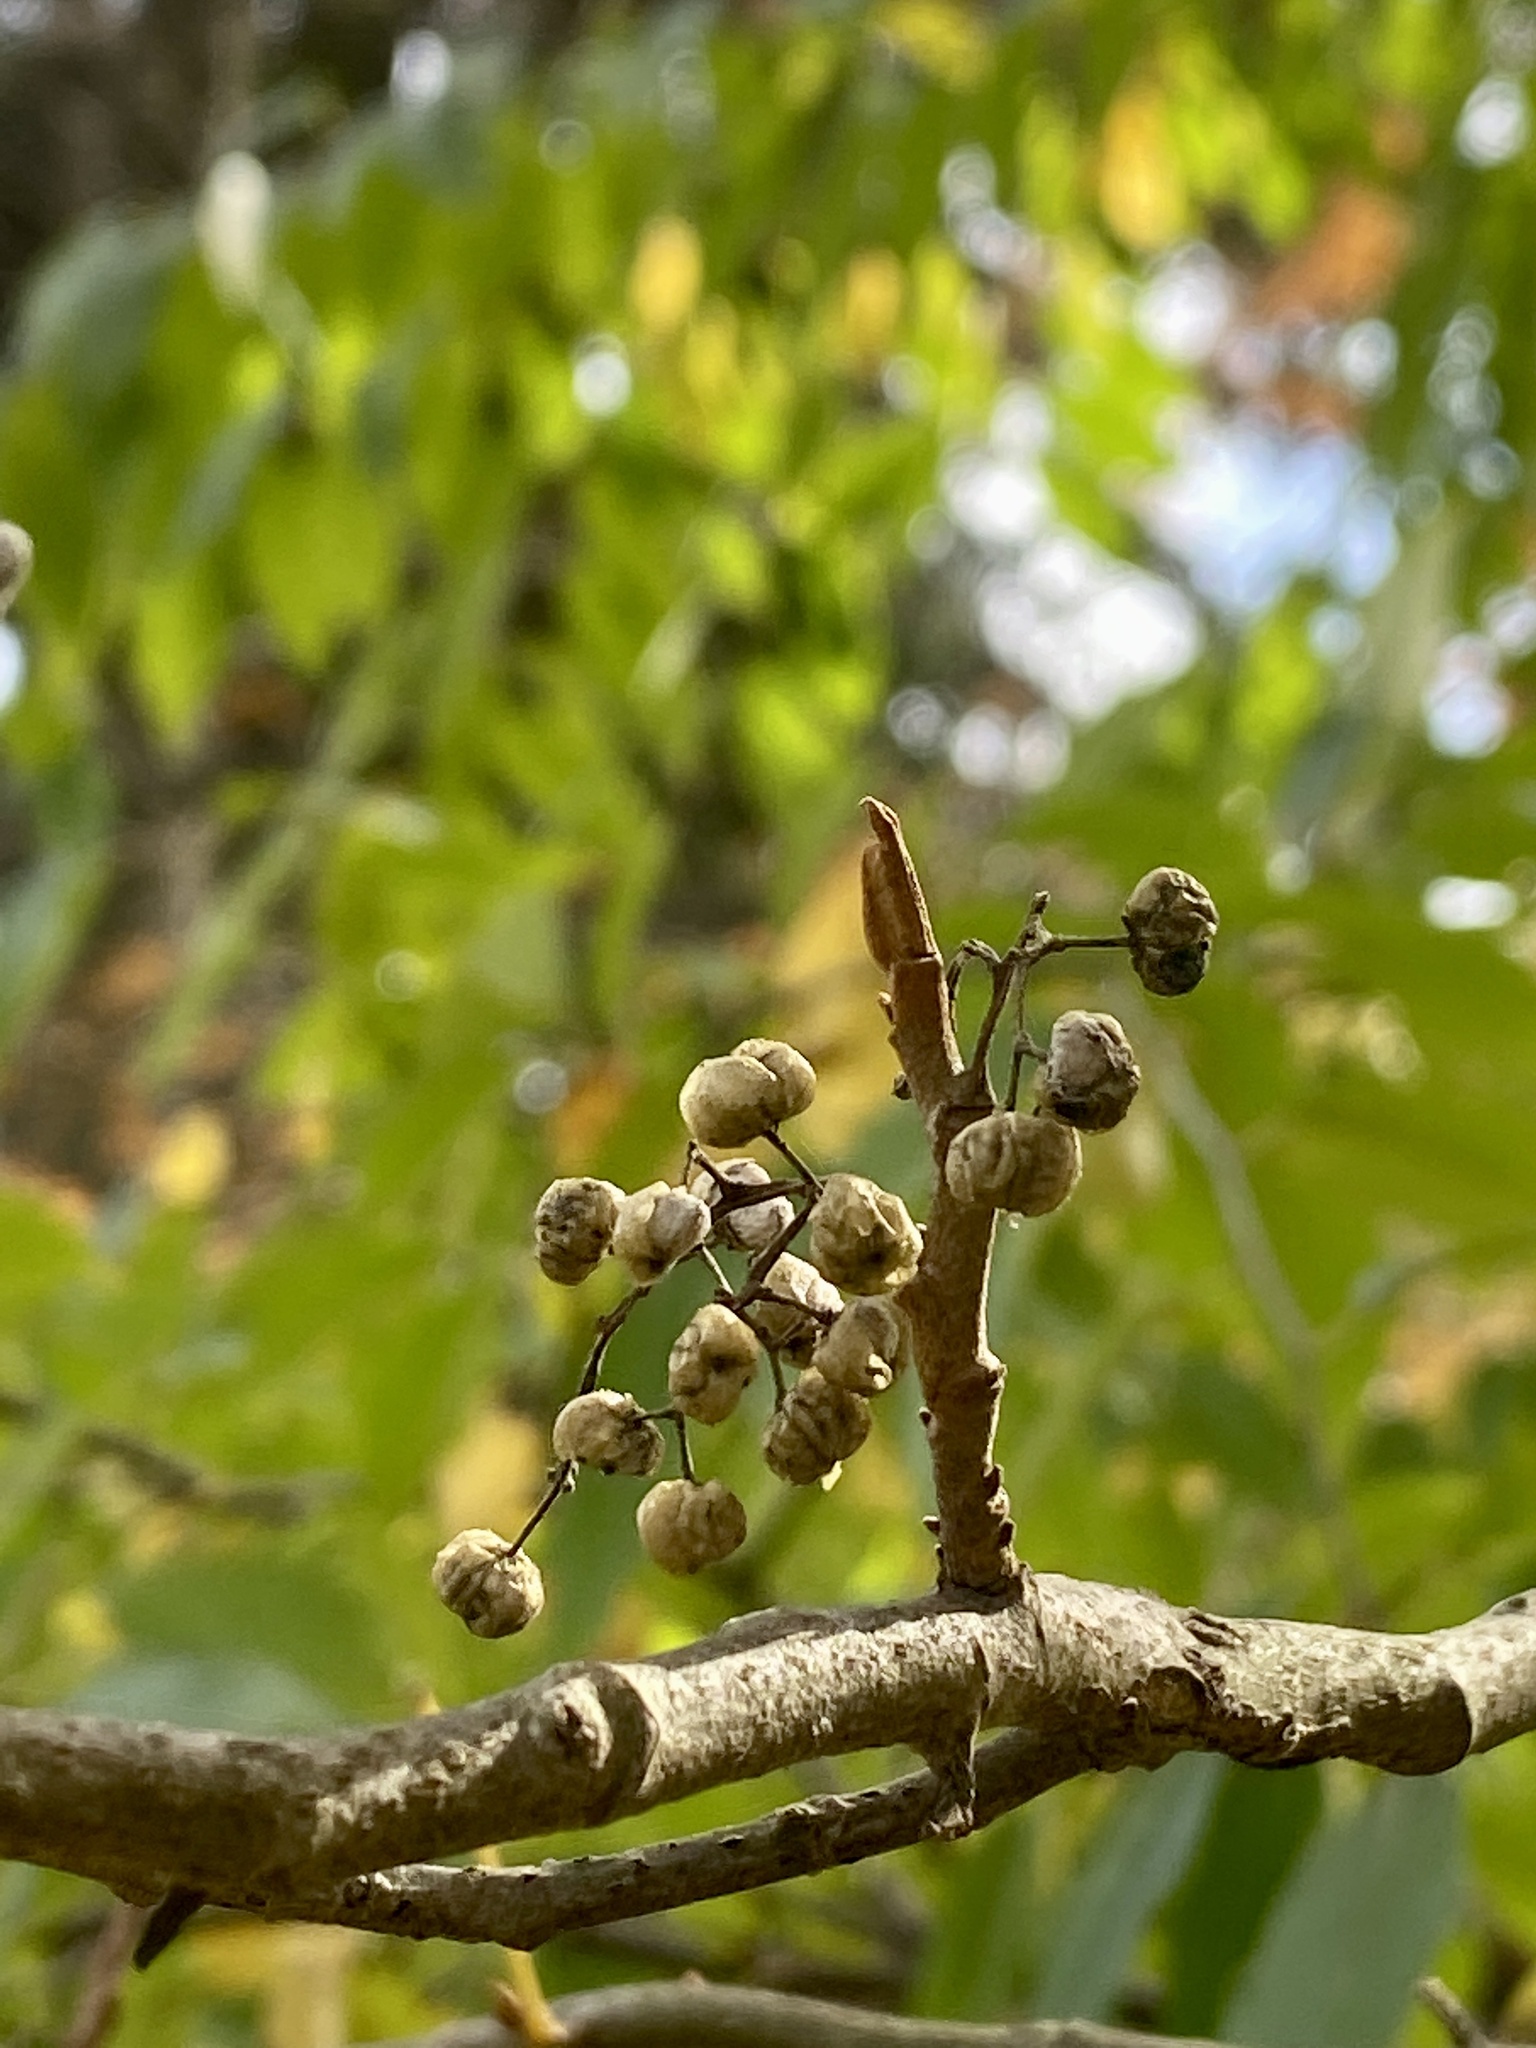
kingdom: Plantae
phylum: Tracheophyta
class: Magnoliopsida
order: Sapindales
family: Anacardiaceae
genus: Toxicodendron
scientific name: Toxicodendron radicans
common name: Poison ivy
